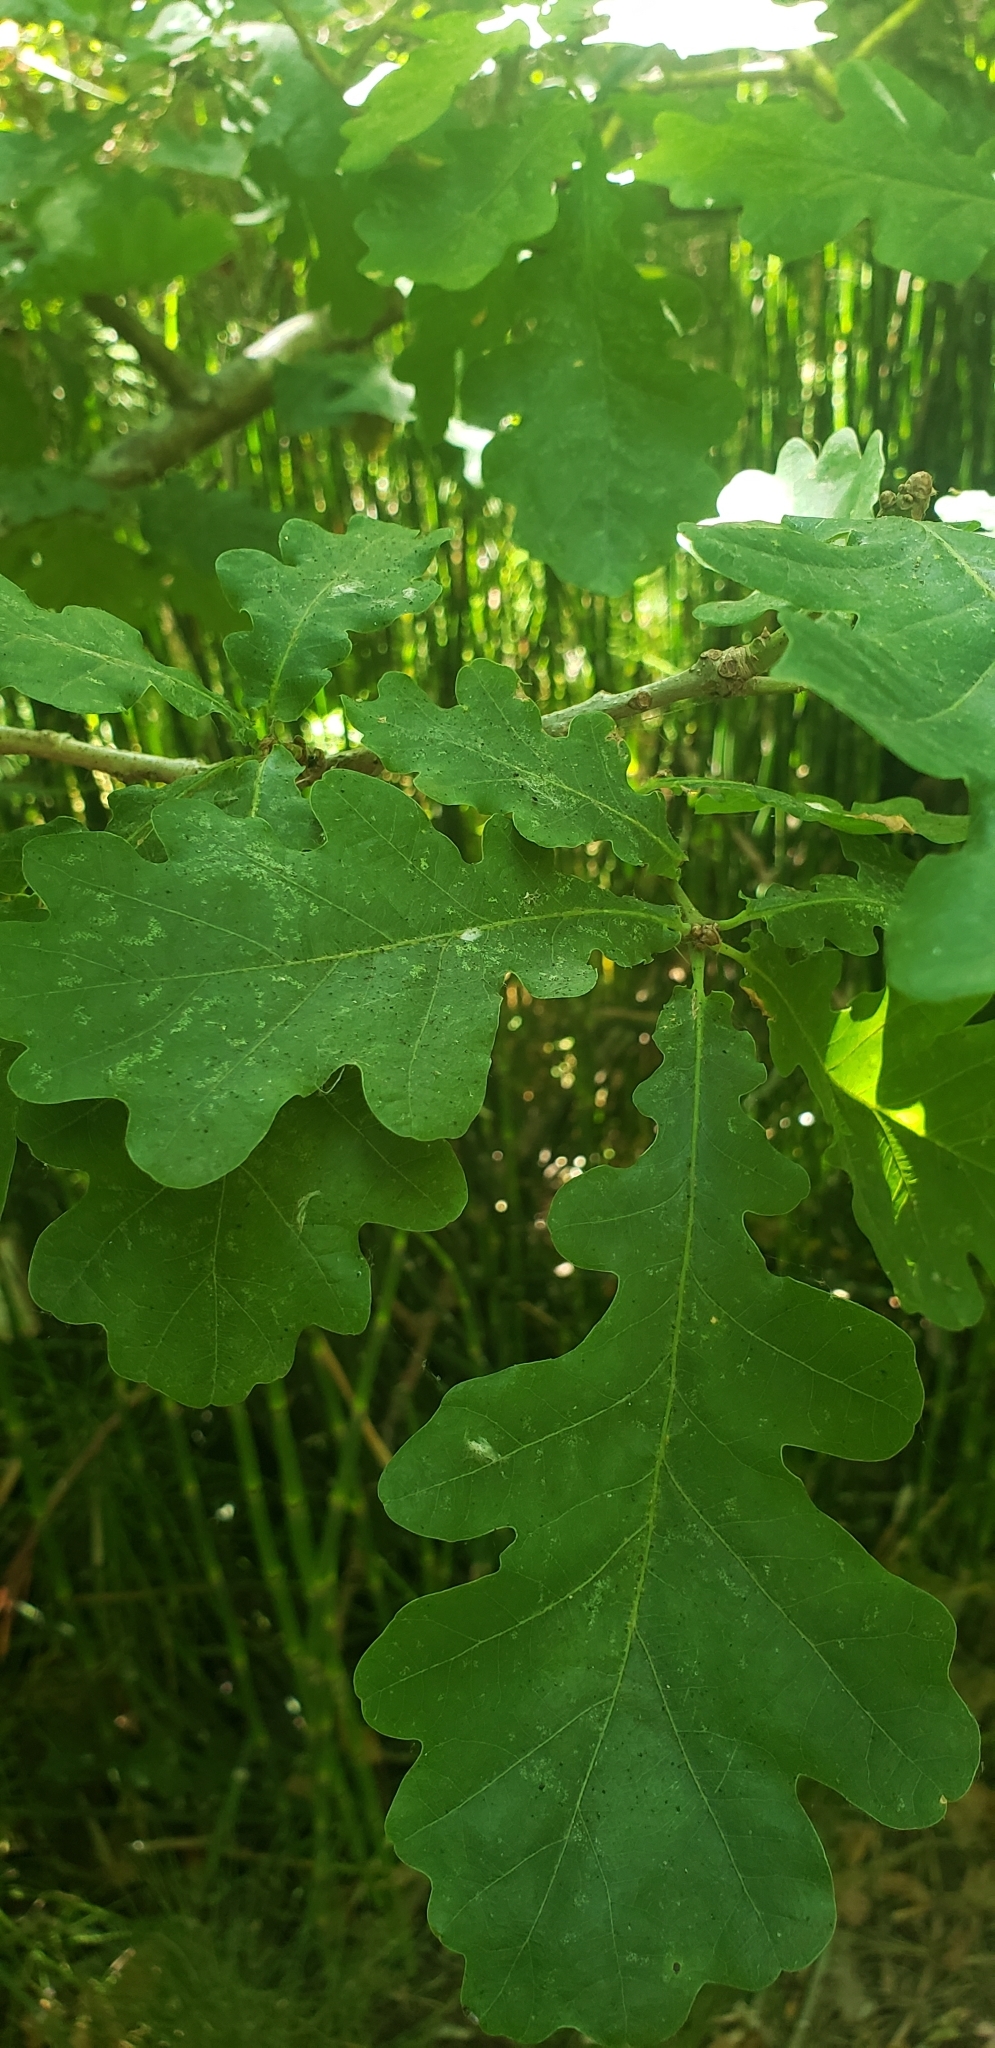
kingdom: Plantae
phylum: Tracheophyta
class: Magnoliopsida
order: Fagales
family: Fagaceae
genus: Quercus
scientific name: Quercus robur
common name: Pedunculate oak
